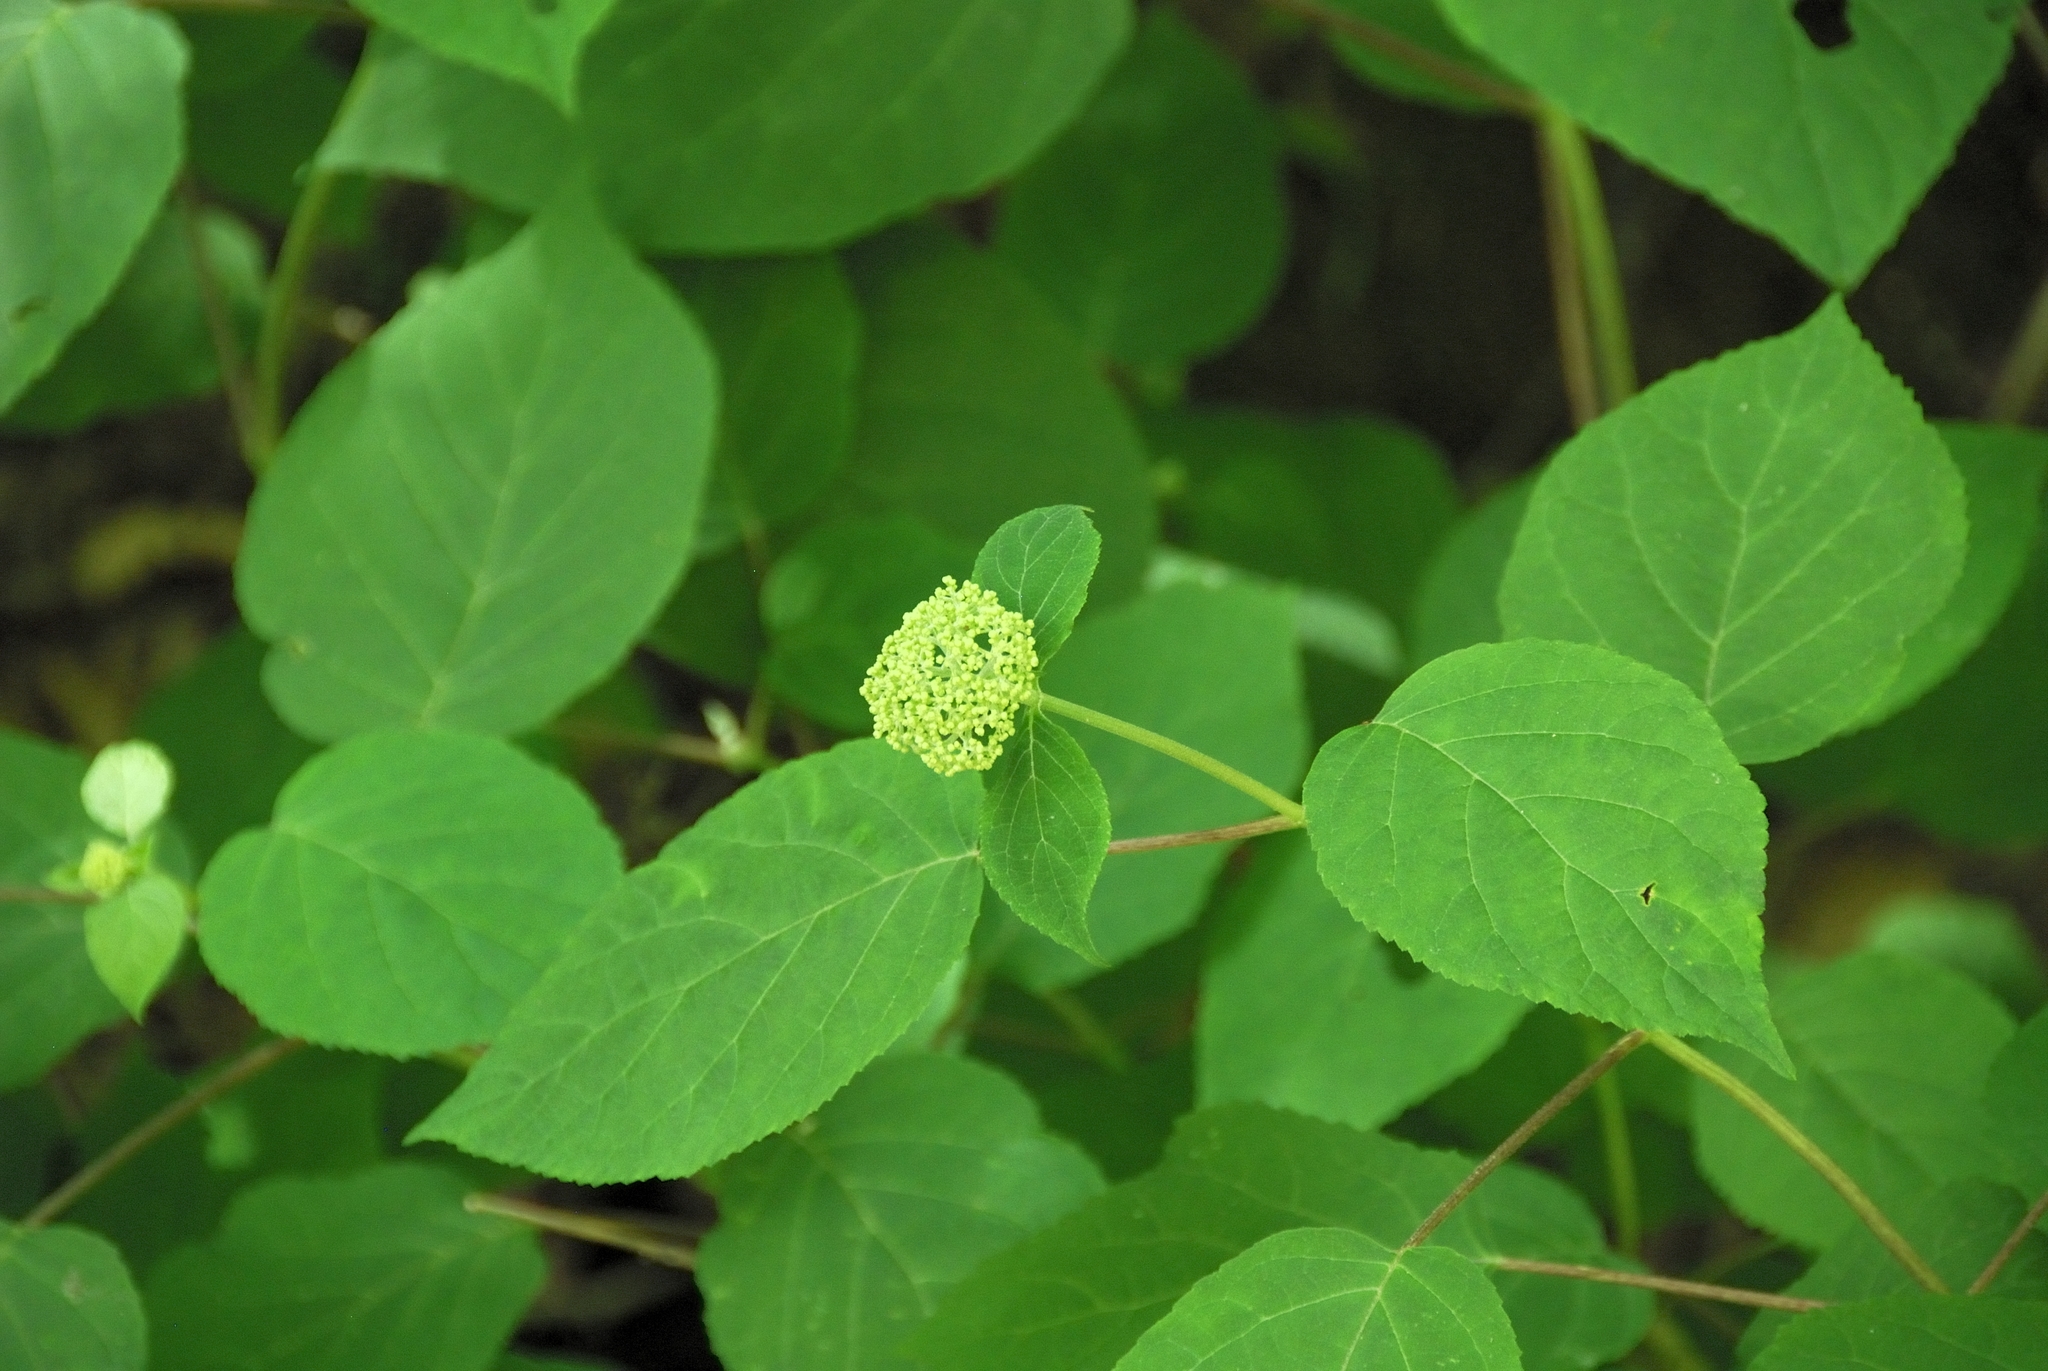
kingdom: Plantae
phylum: Tracheophyta
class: Magnoliopsida
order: Cornales
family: Hydrangeaceae
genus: Hydrangea
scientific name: Hydrangea arborescens
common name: Sevenbark
